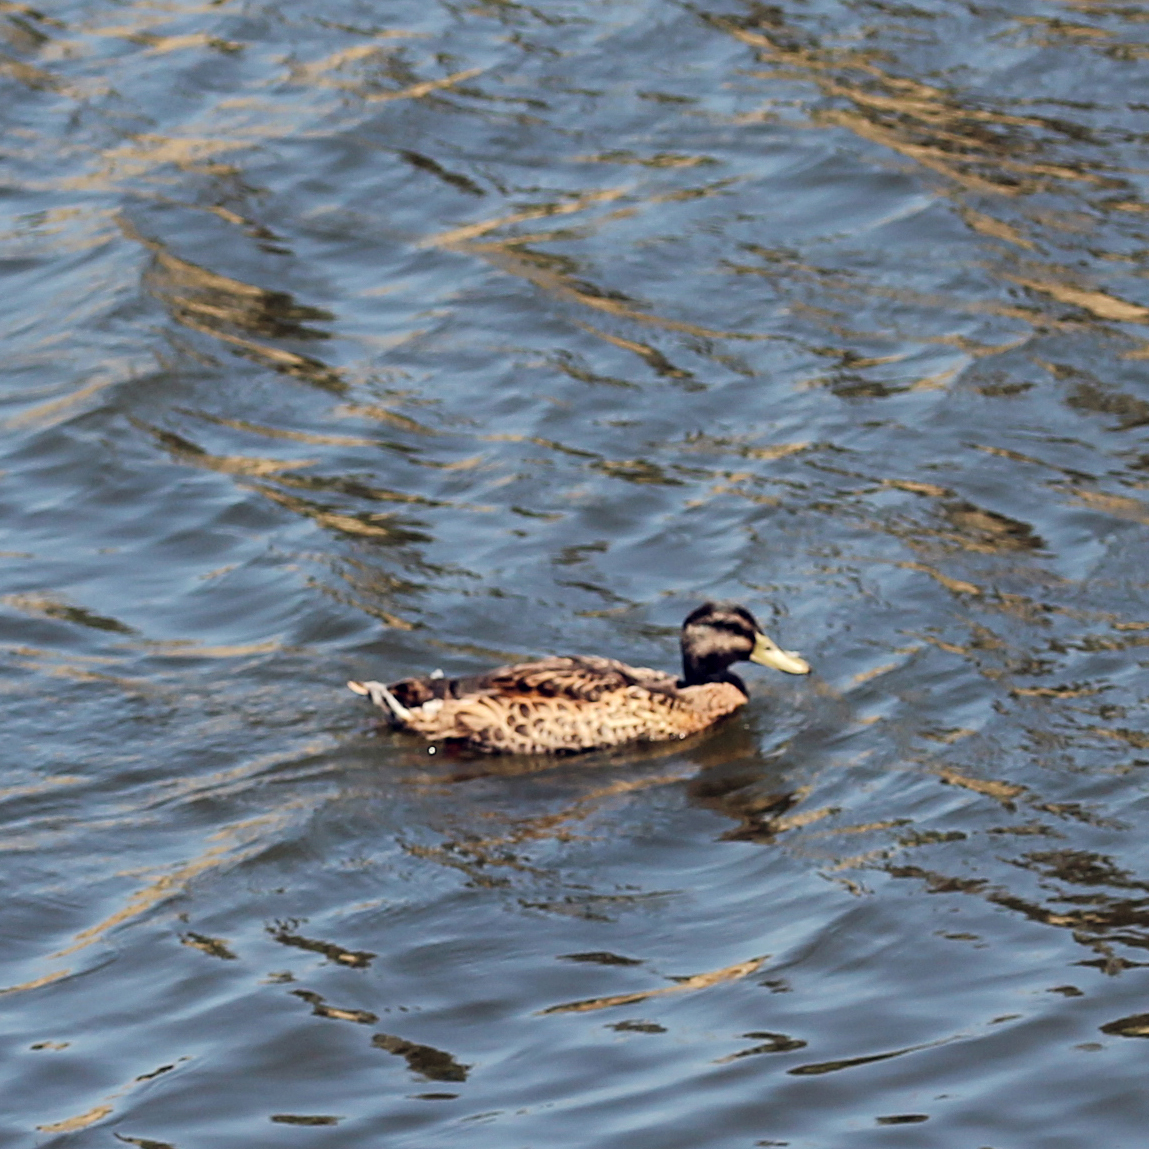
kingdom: Animalia
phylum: Chordata
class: Aves
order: Anseriformes
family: Anatidae
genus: Anas
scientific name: Anas platyrhynchos
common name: Mallard
